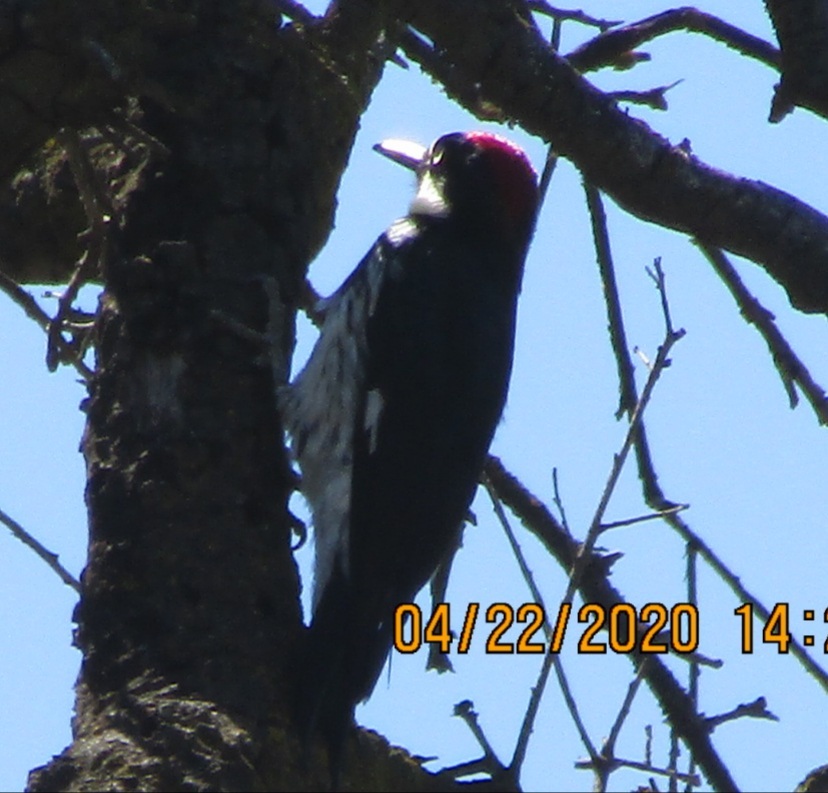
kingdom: Animalia
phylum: Chordata
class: Aves
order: Piciformes
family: Picidae
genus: Melanerpes
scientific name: Melanerpes formicivorus
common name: Acorn woodpecker
